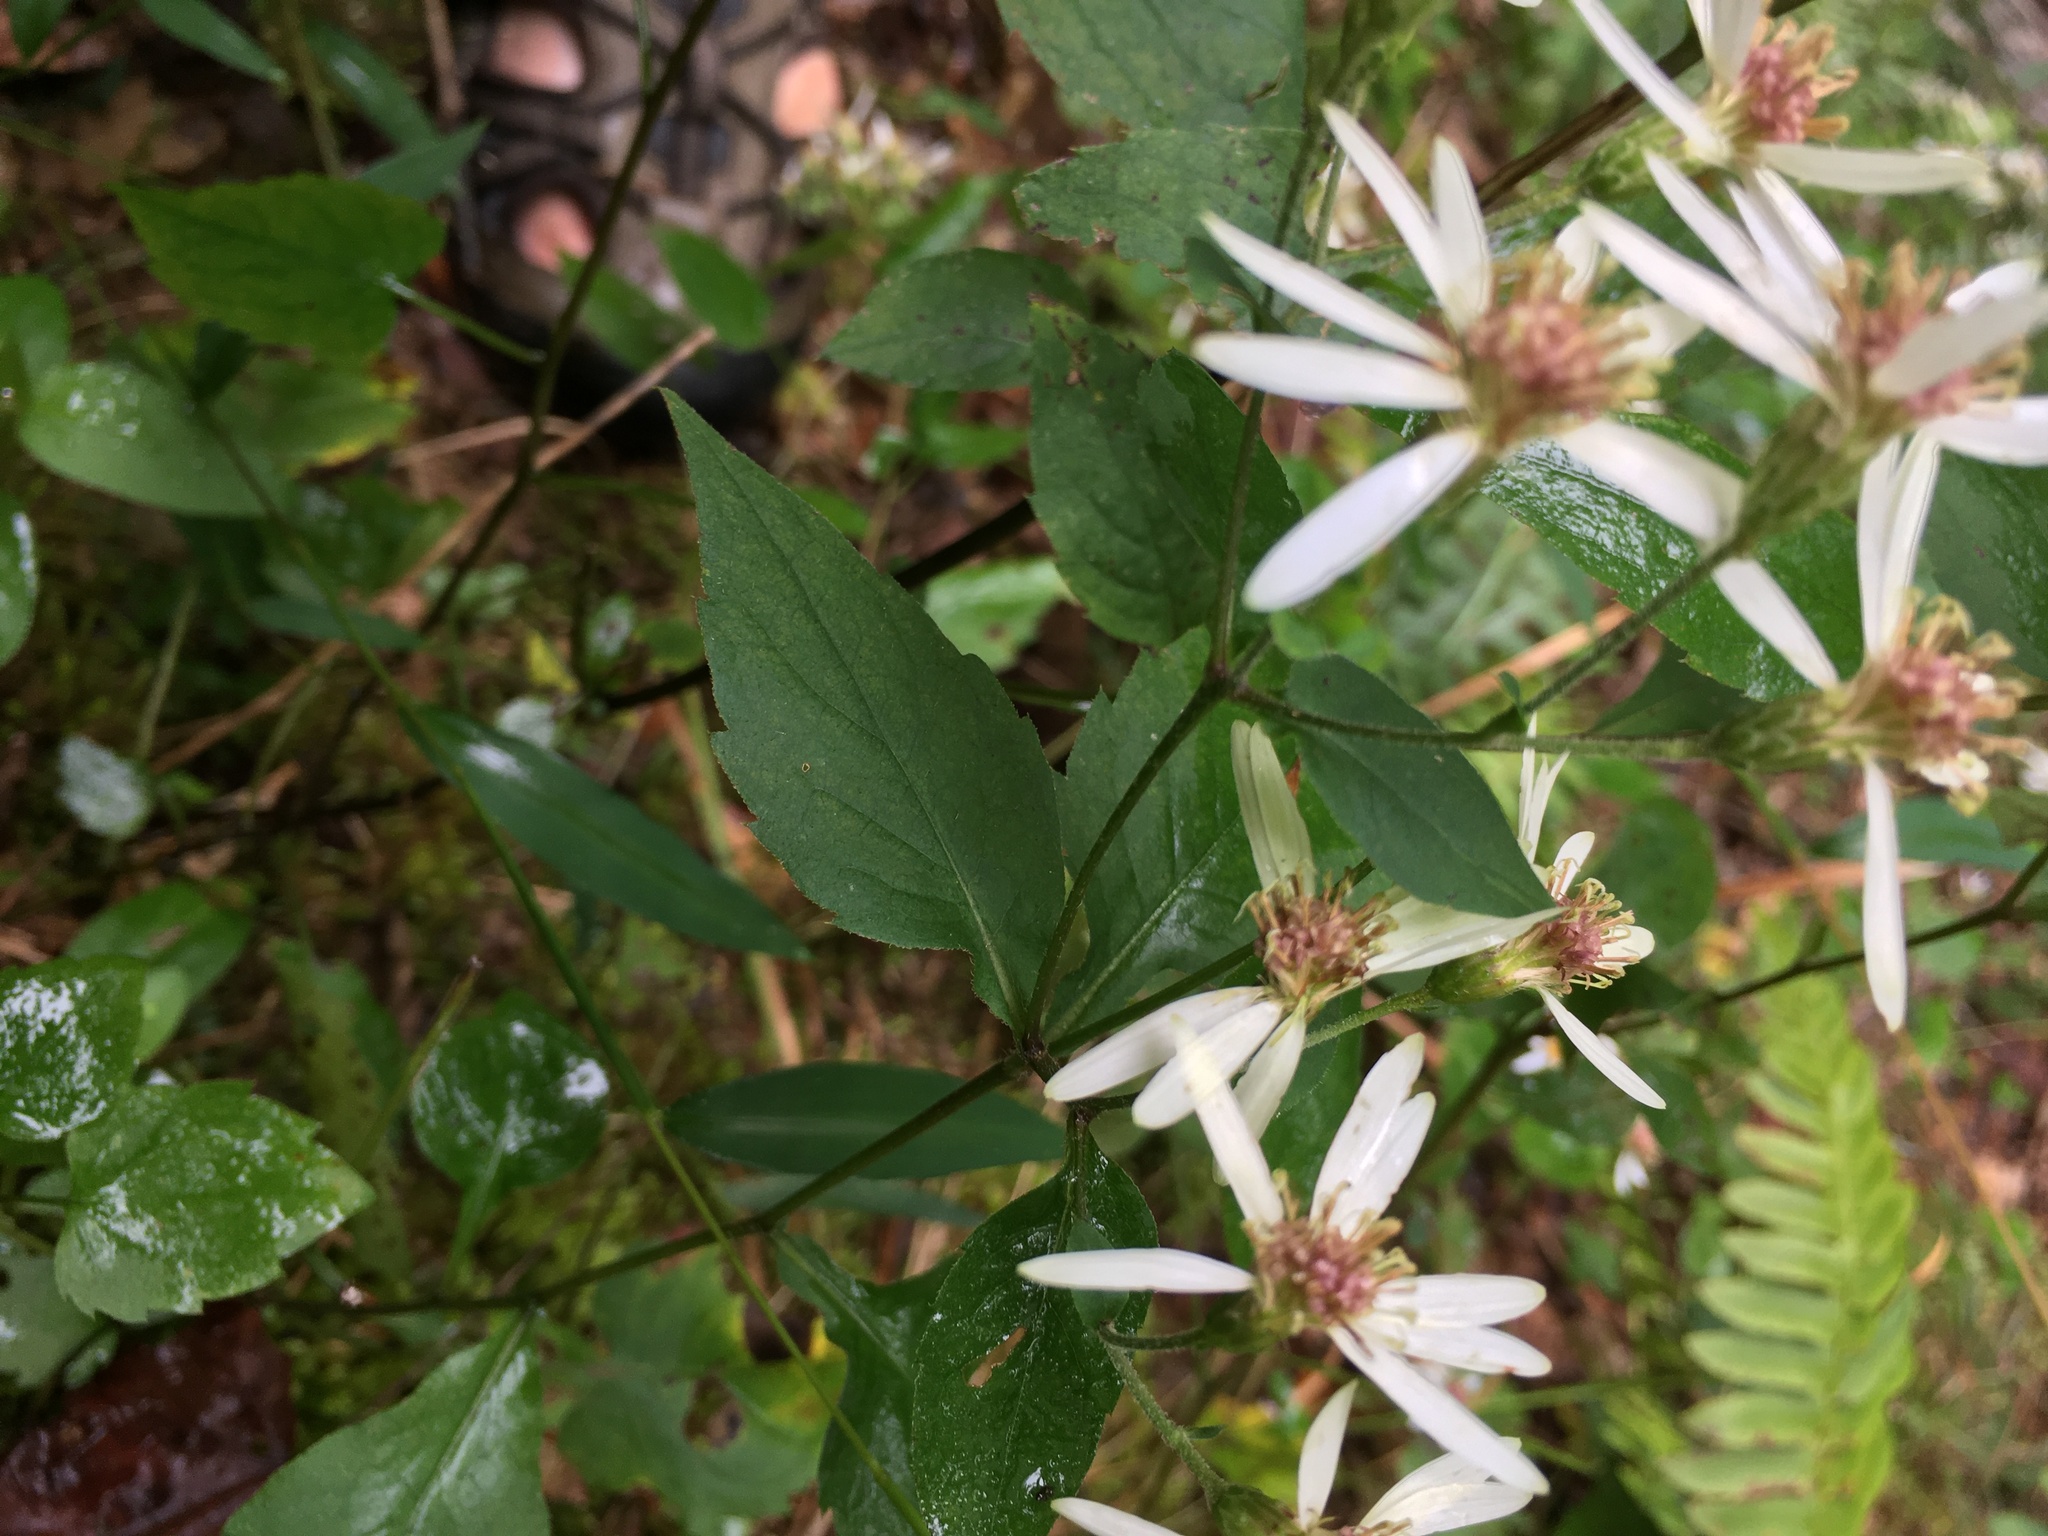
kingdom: Plantae
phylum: Tracheophyta
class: Magnoliopsida
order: Asterales
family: Asteraceae
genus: Eurybia
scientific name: Eurybia divaricata
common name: White wood aster
